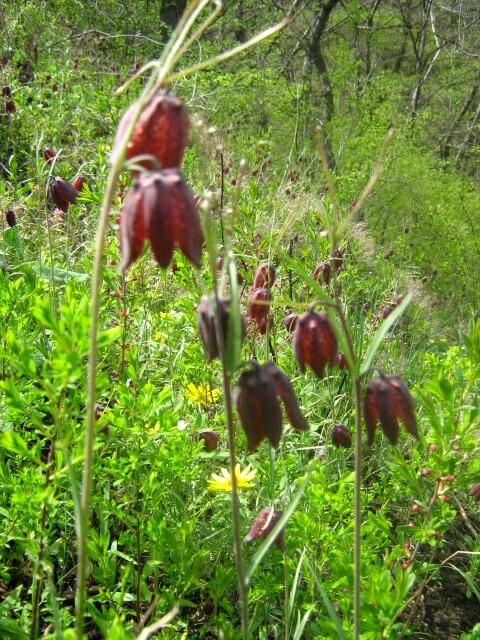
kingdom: Plantae
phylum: Tracheophyta
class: Liliopsida
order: Liliales
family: Liliaceae
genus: Fritillaria
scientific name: Fritillaria ruthenica
